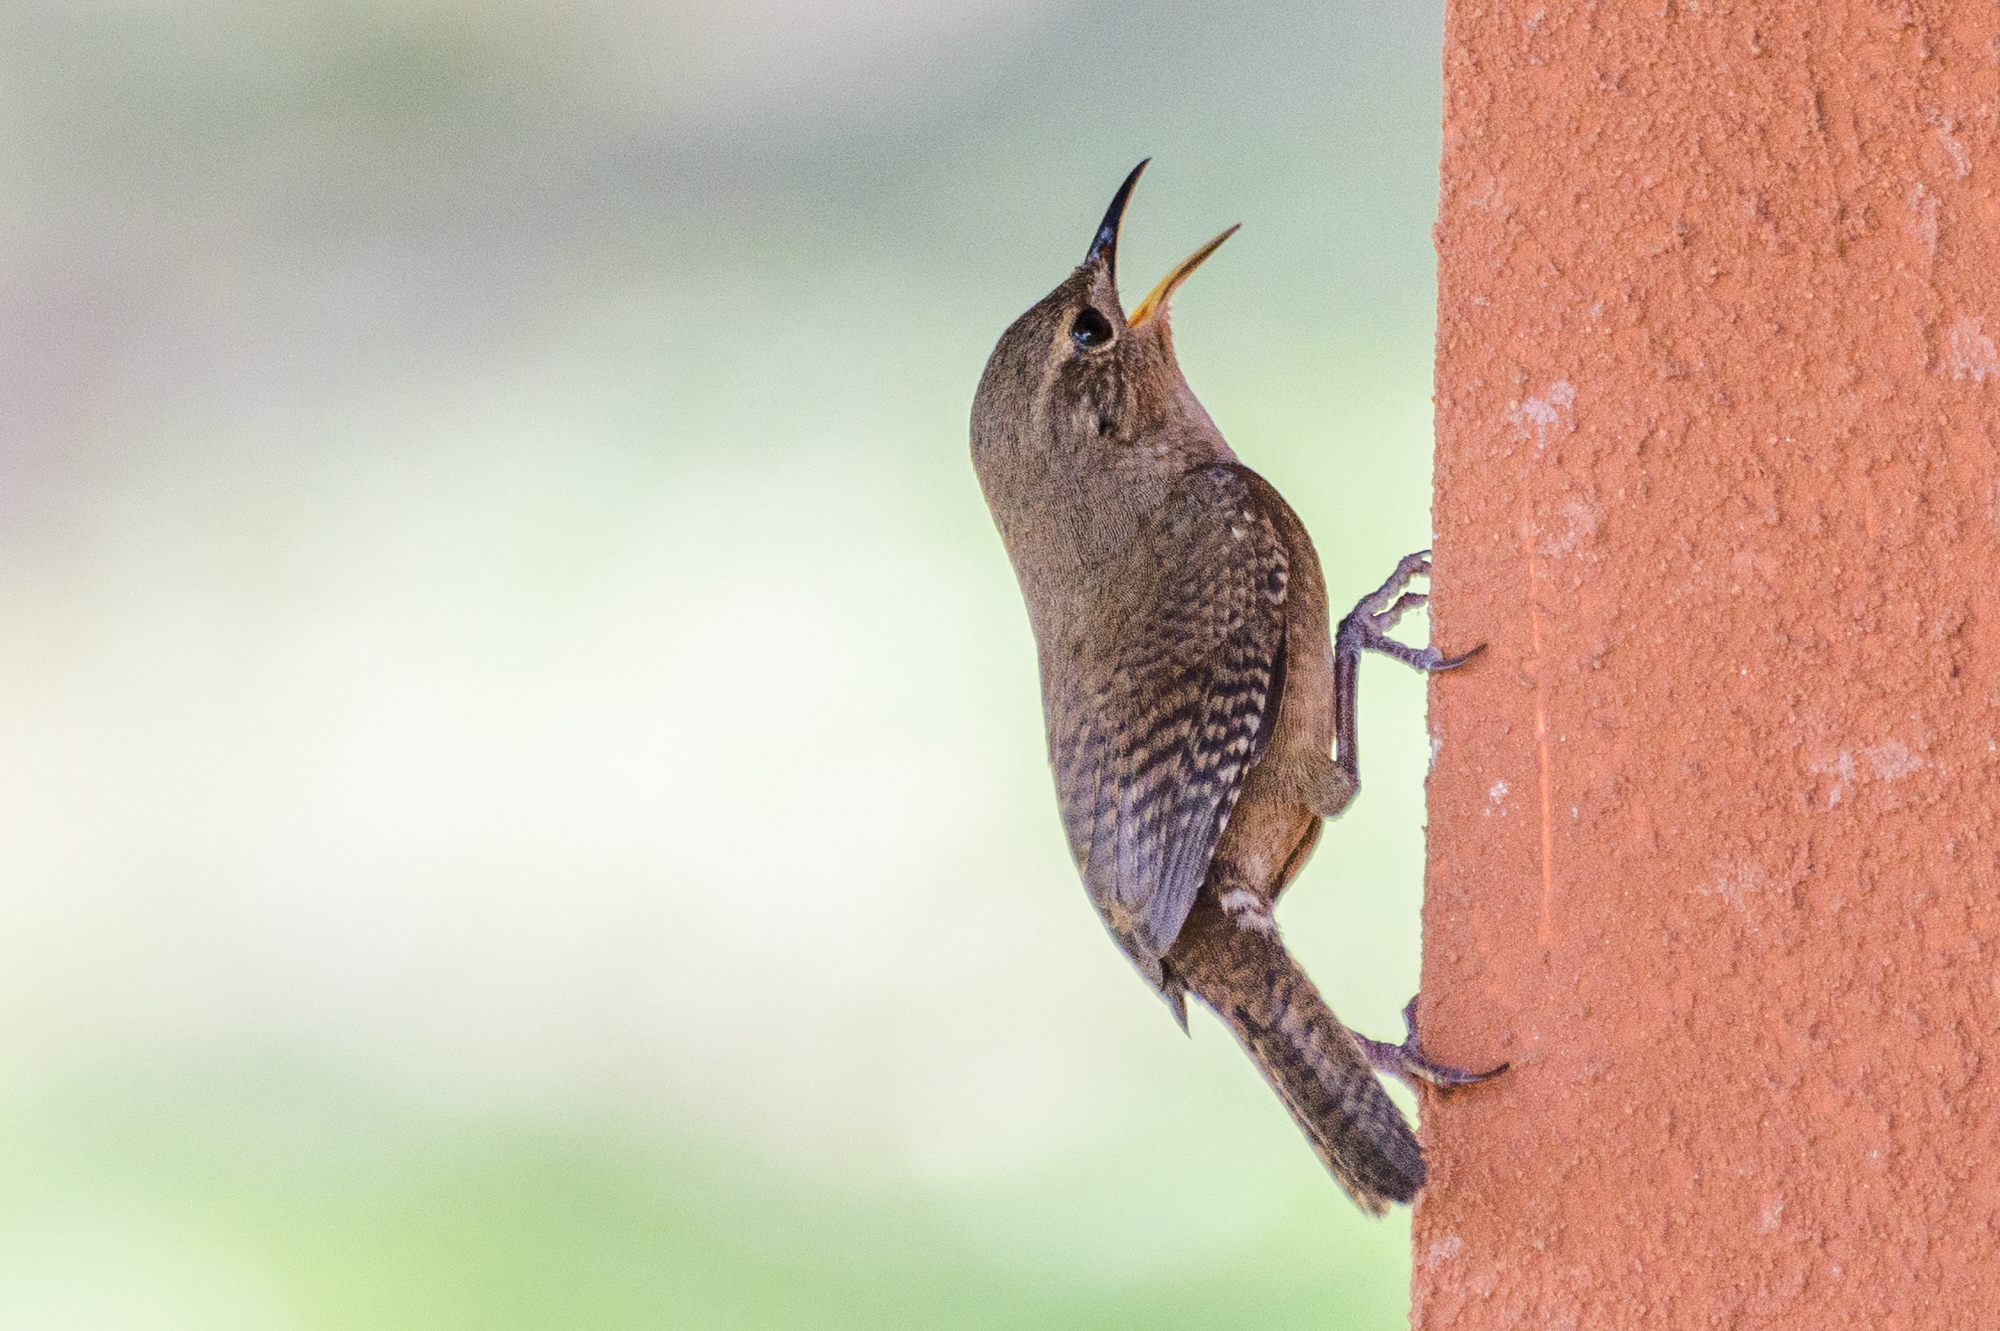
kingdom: Animalia
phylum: Chordata
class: Aves
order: Passeriformes
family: Troglodytidae
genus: Troglodytes
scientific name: Troglodytes aedon
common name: House wren
